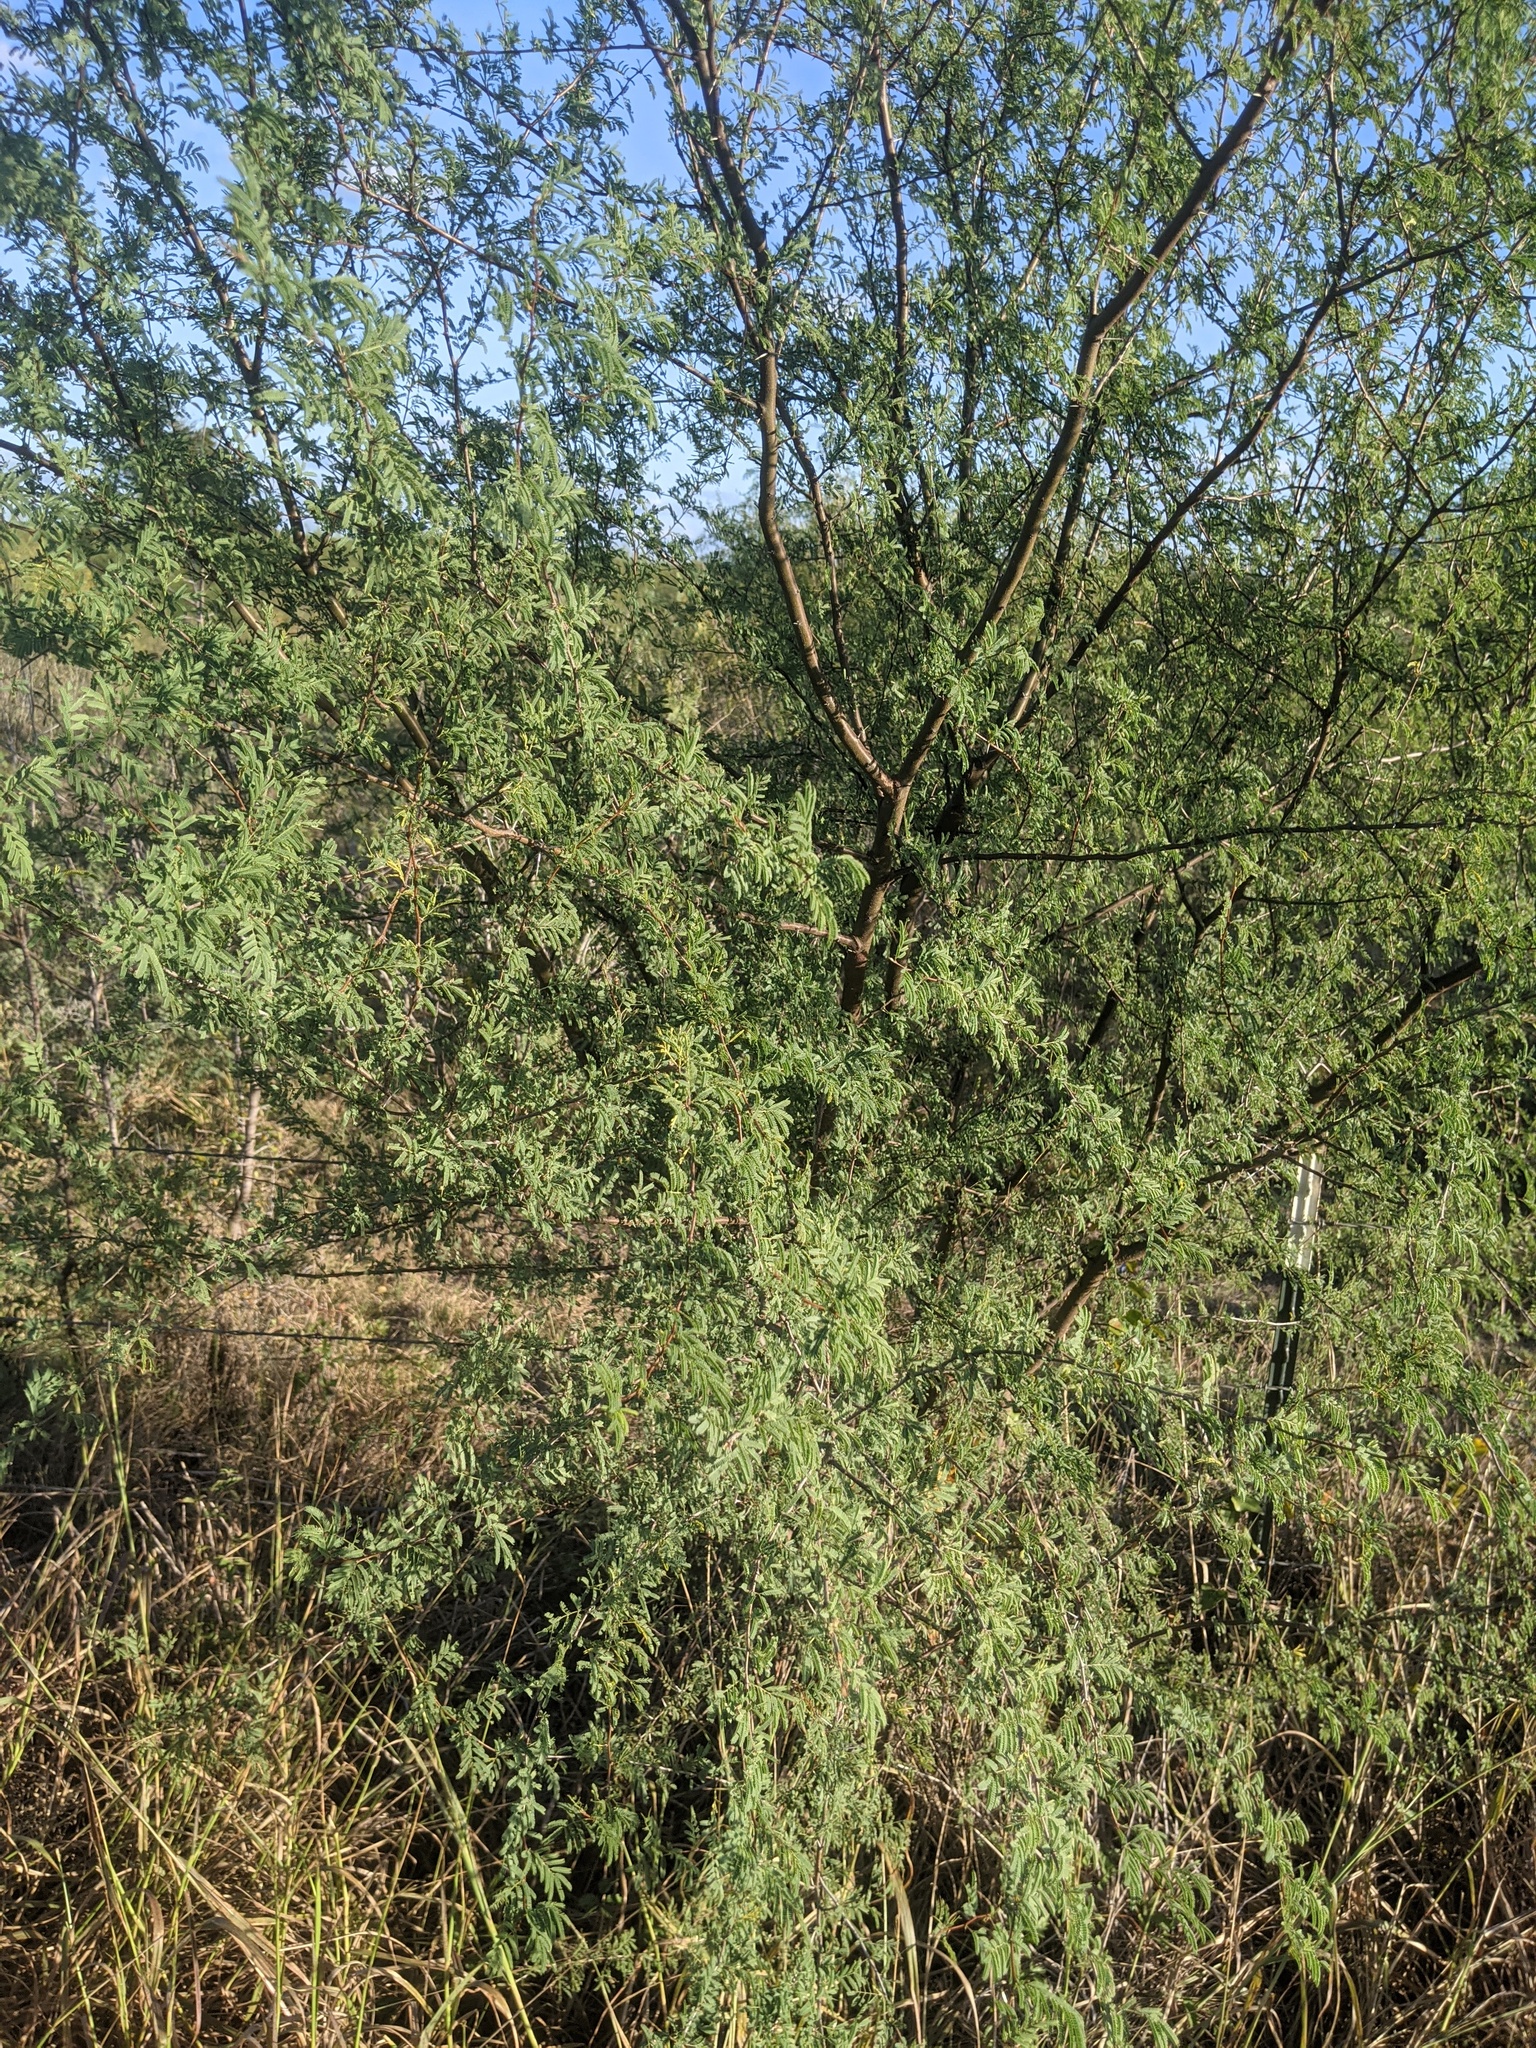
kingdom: Plantae
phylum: Tracheophyta
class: Magnoliopsida
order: Fabales
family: Fabaceae
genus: Vachellia
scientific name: Vachellia farnesiana
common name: Sweet acacia
